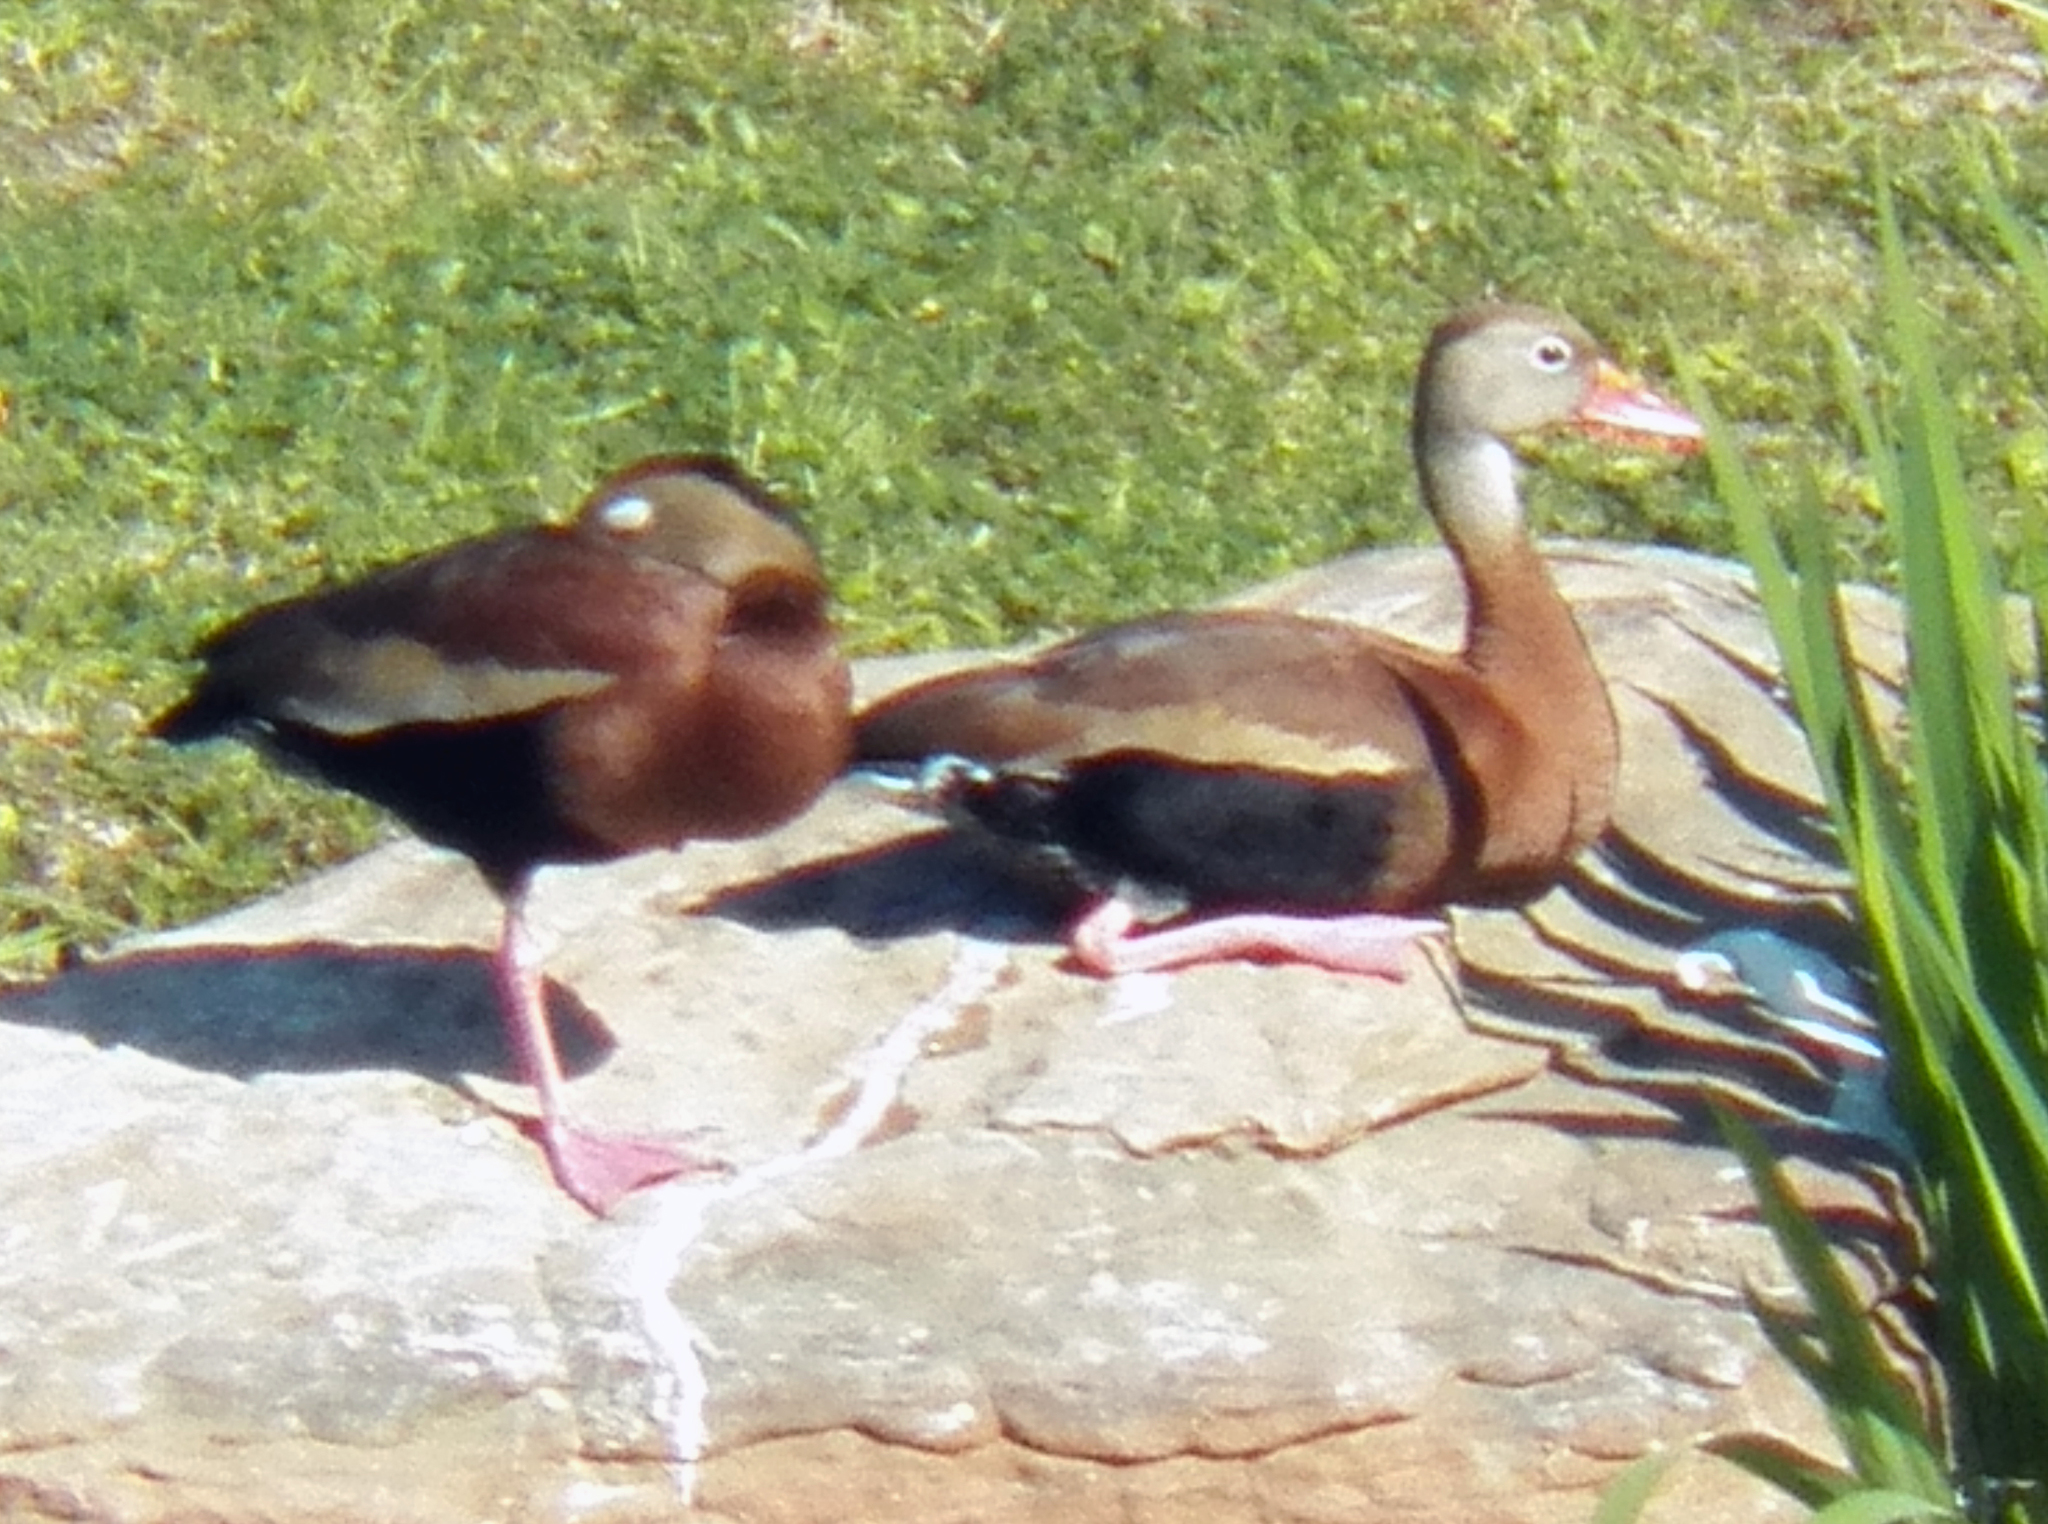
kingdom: Animalia
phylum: Chordata
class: Aves
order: Anseriformes
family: Anatidae
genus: Dendrocygna
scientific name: Dendrocygna autumnalis
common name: Black-bellied whistling duck
